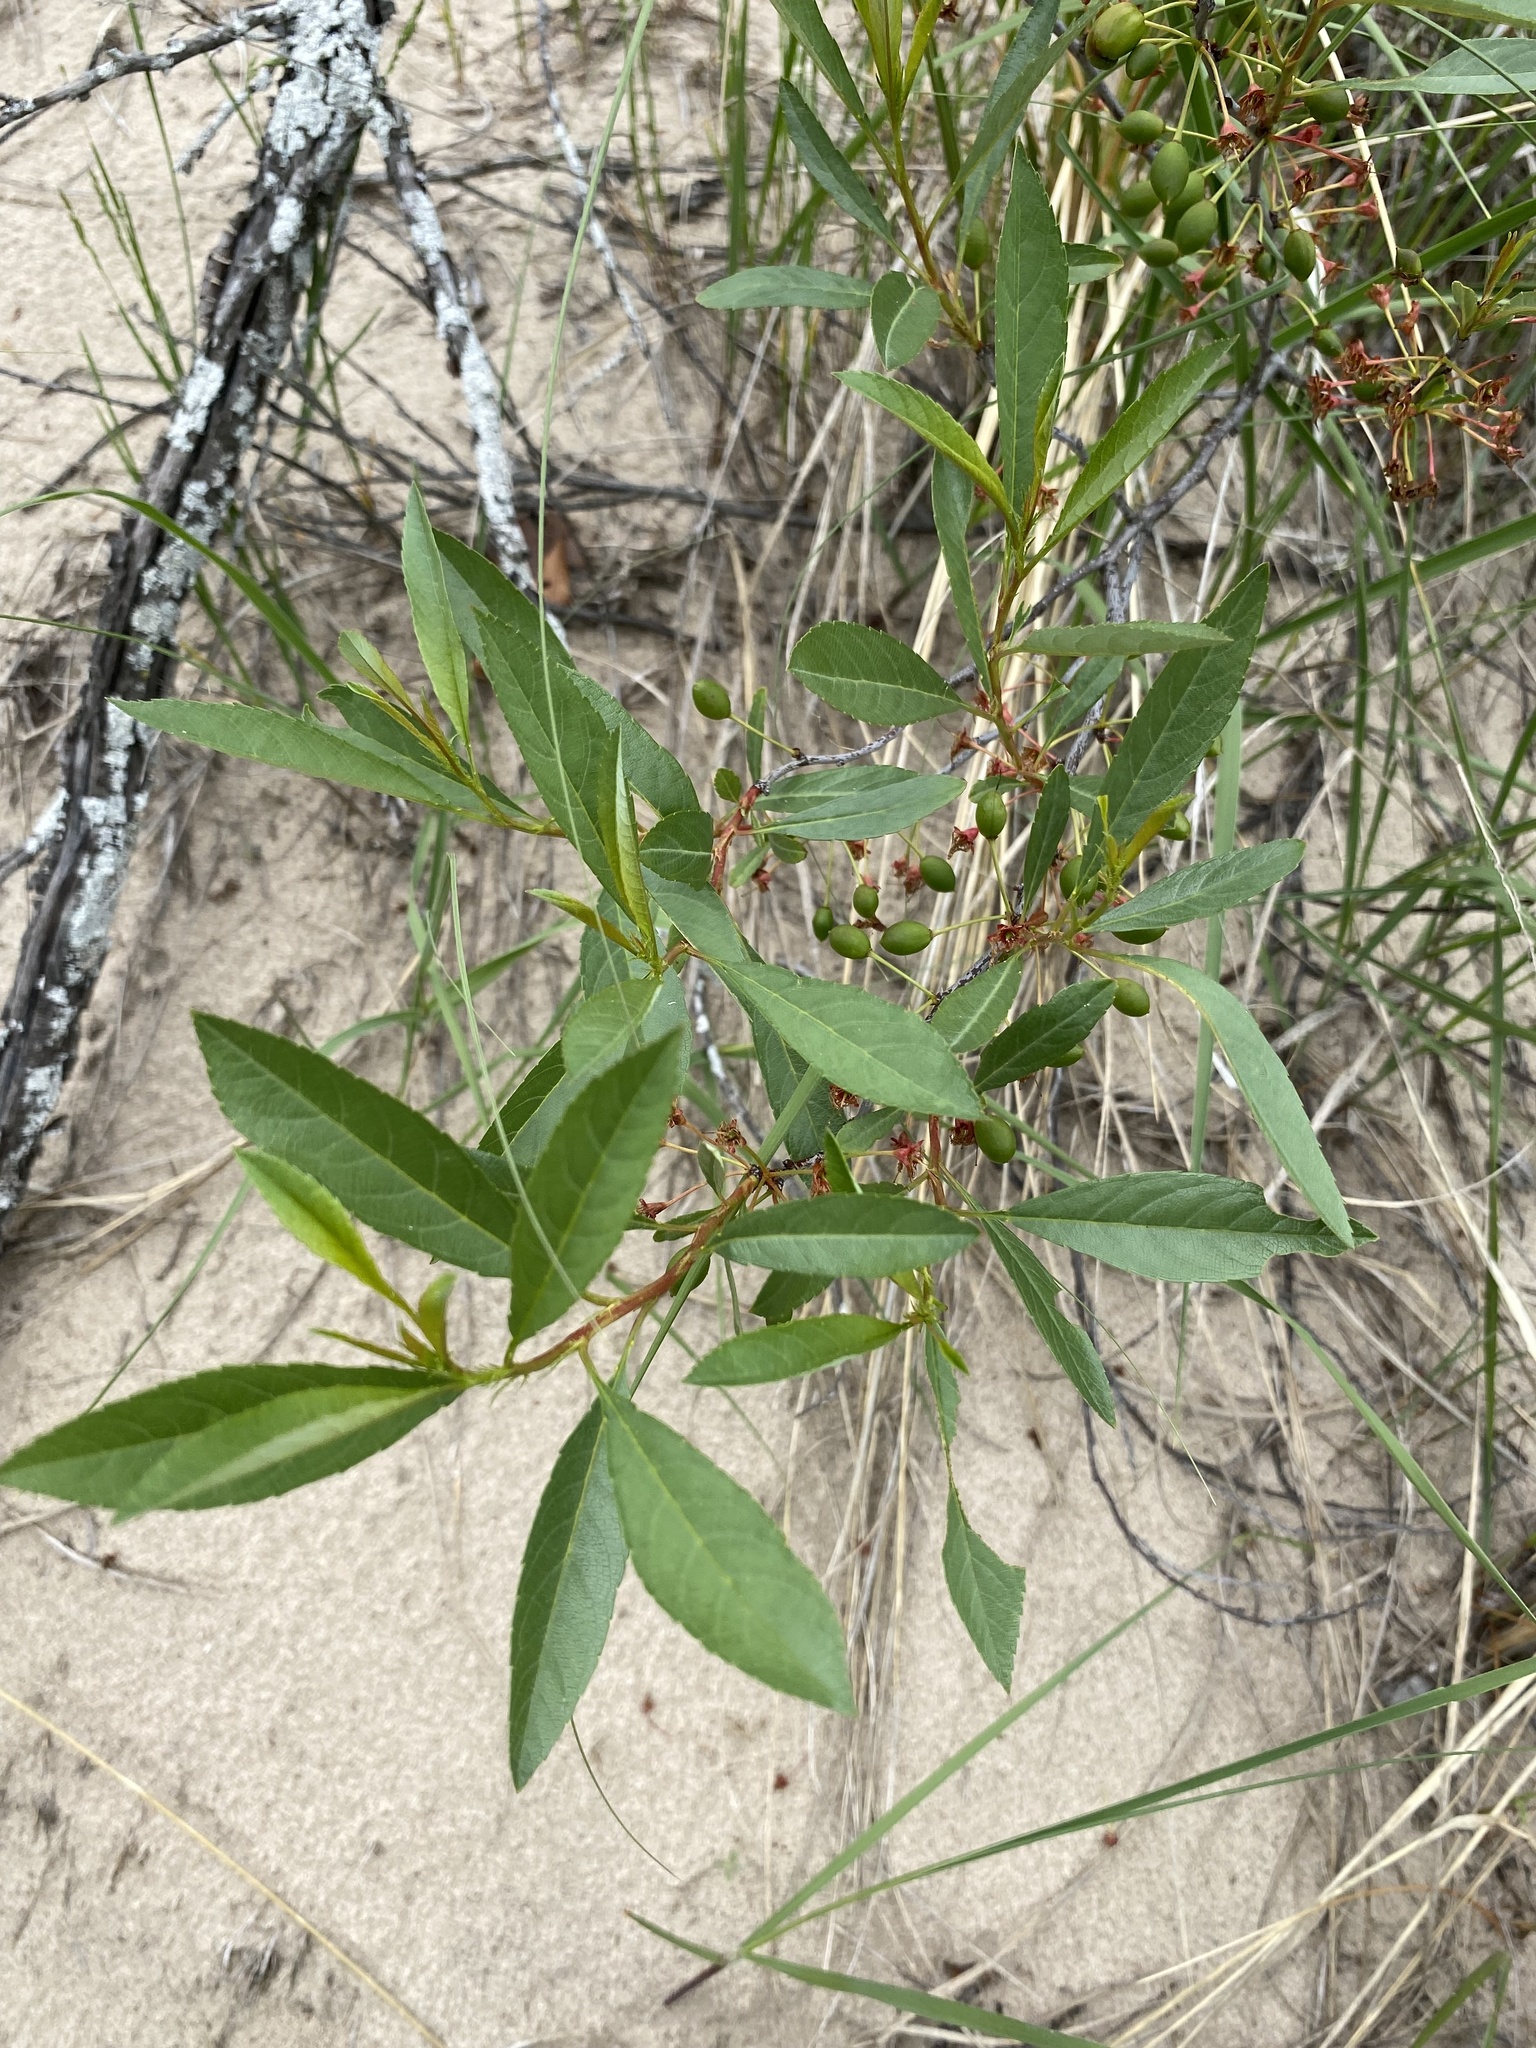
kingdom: Plantae
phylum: Tracheophyta
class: Magnoliopsida
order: Rosales
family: Rosaceae
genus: Prunus
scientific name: Prunus pumila
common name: Dwarf cherry
